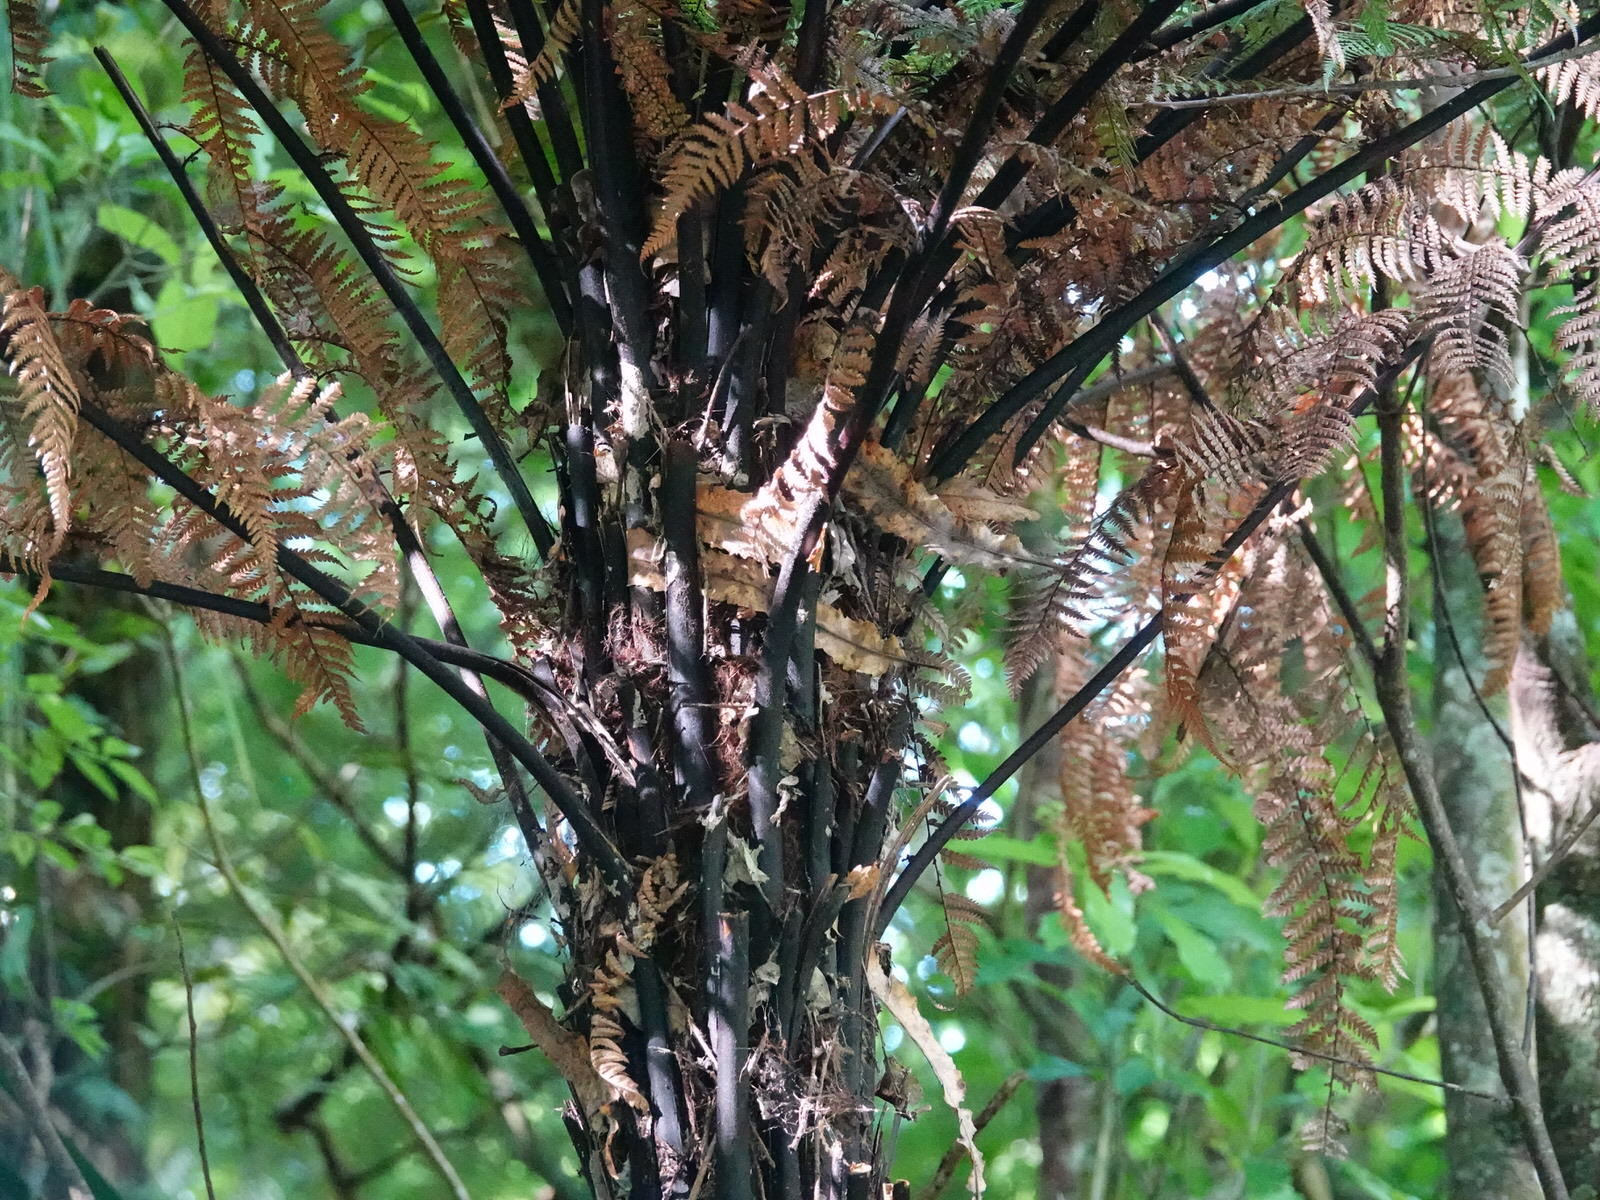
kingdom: Plantae
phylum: Tracheophyta
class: Polypodiopsida
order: Cyatheales
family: Dicksoniaceae
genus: Dicksonia
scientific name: Dicksonia squarrosa
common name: Hard treefern
